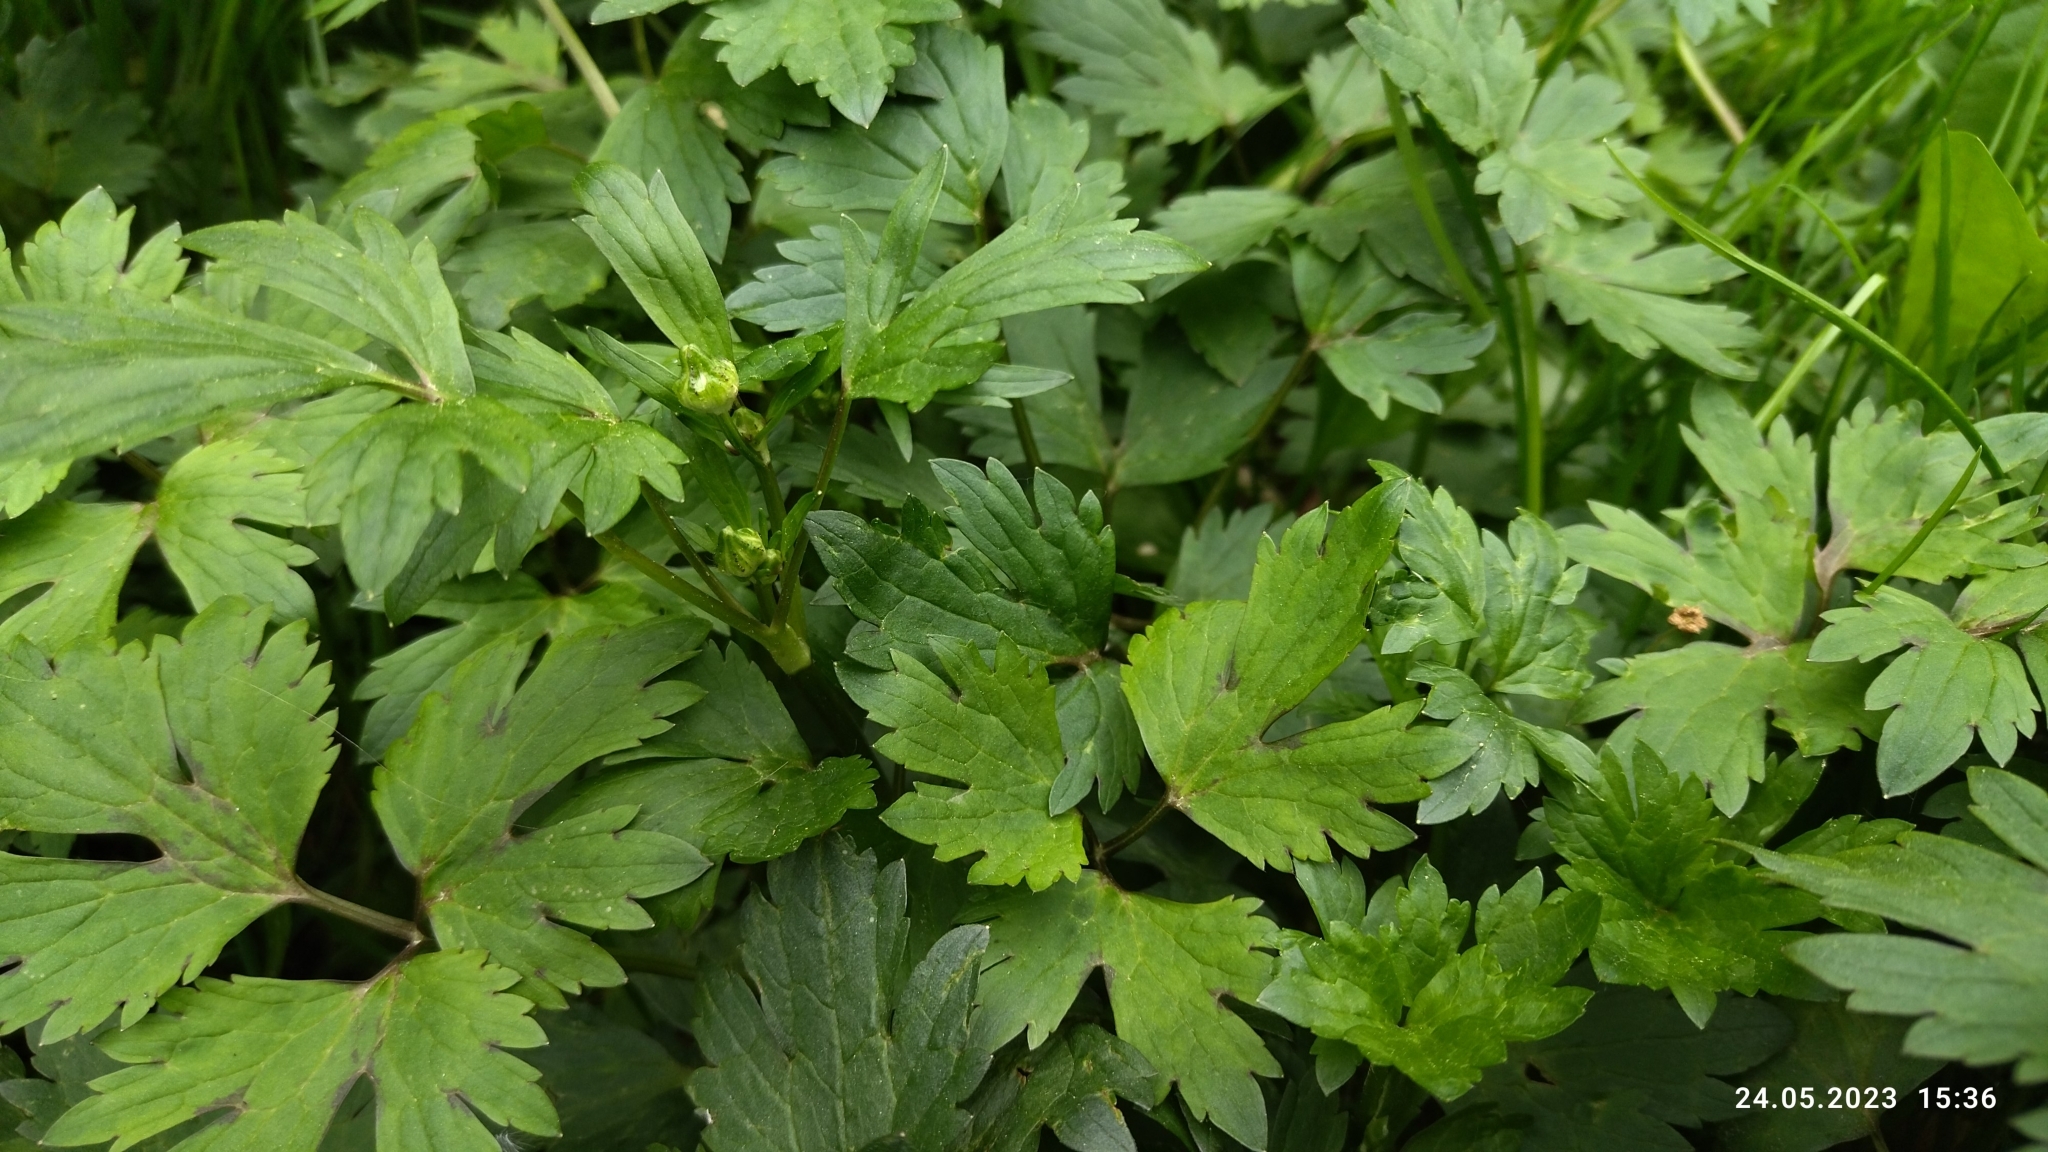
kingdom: Plantae
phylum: Tracheophyta
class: Magnoliopsida
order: Ranunculales
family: Ranunculaceae
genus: Ranunculus
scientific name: Ranunculus repens
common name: Creeping buttercup
